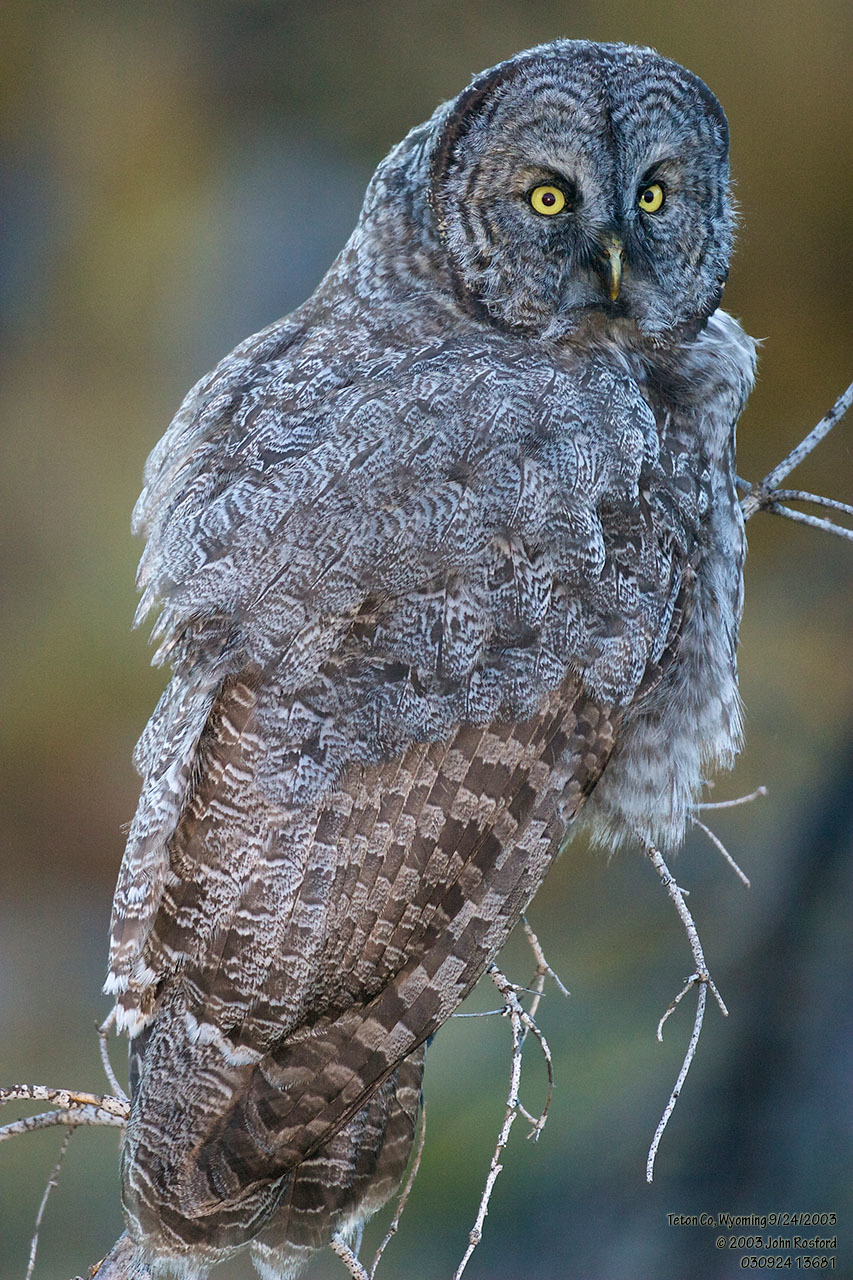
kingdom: Animalia
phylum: Chordata
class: Aves
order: Strigiformes
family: Strigidae
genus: Strix
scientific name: Strix nebulosa
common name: Great grey owl
